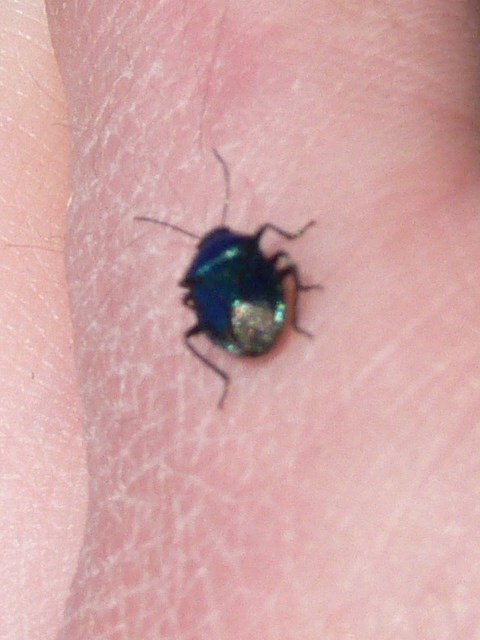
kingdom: Animalia
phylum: Arthropoda
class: Insecta
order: Hemiptera
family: Pentatomidae
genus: Zicrona
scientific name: Zicrona caerulea
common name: Blue shieldbug
